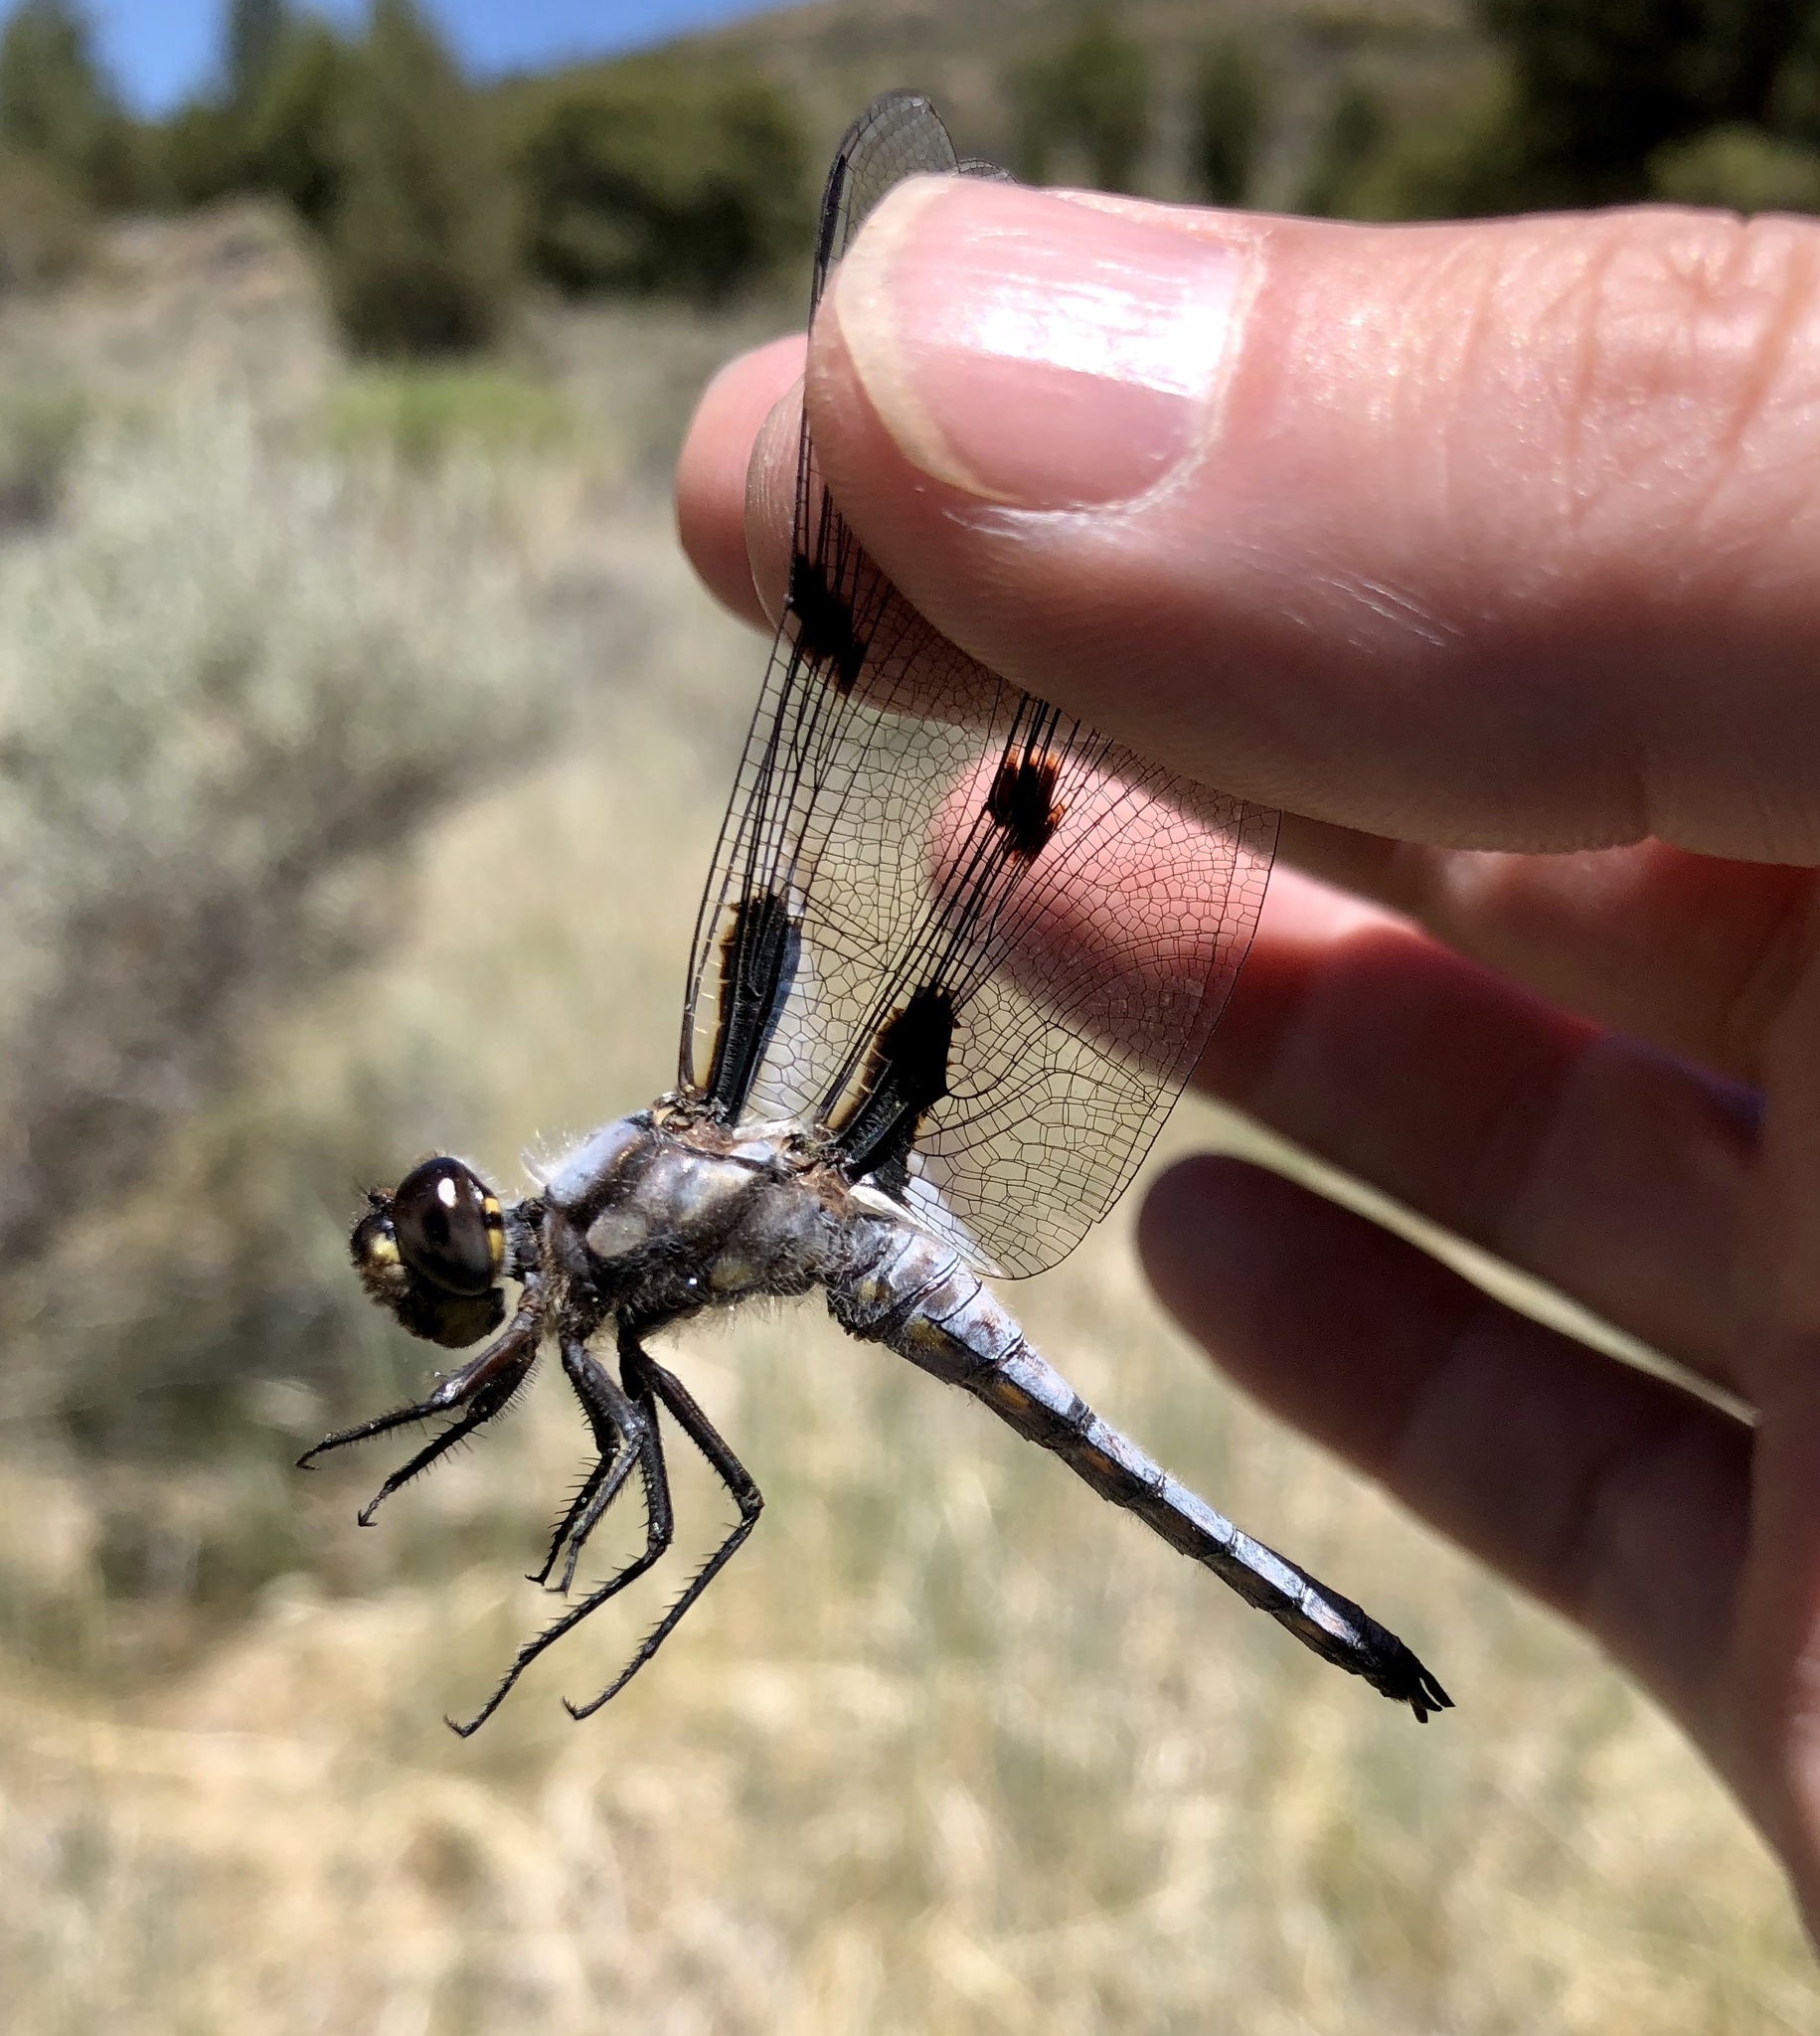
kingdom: Animalia
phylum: Arthropoda
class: Insecta
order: Odonata
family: Libellulidae
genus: Libellula
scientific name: Libellula nodisticta
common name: Hoary skimmer
